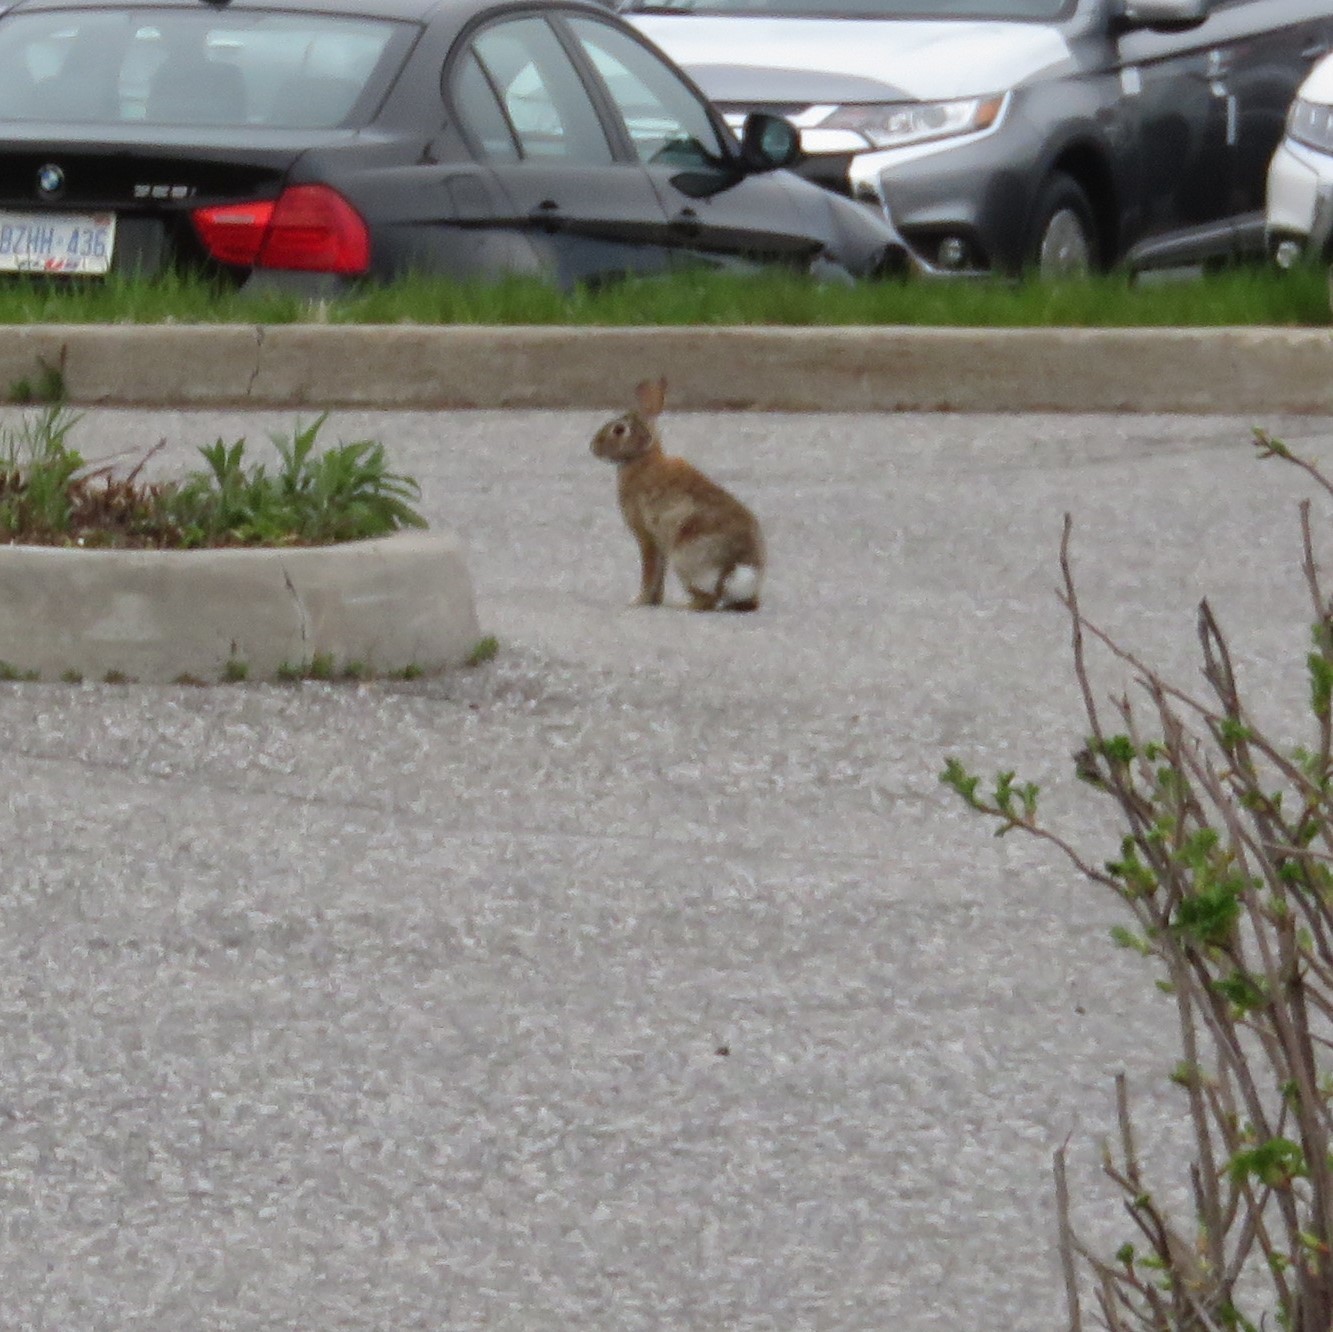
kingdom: Animalia
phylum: Chordata
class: Mammalia
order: Lagomorpha
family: Leporidae
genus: Sylvilagus
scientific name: Sylvilagus floridanus
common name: Eastern cottontail
